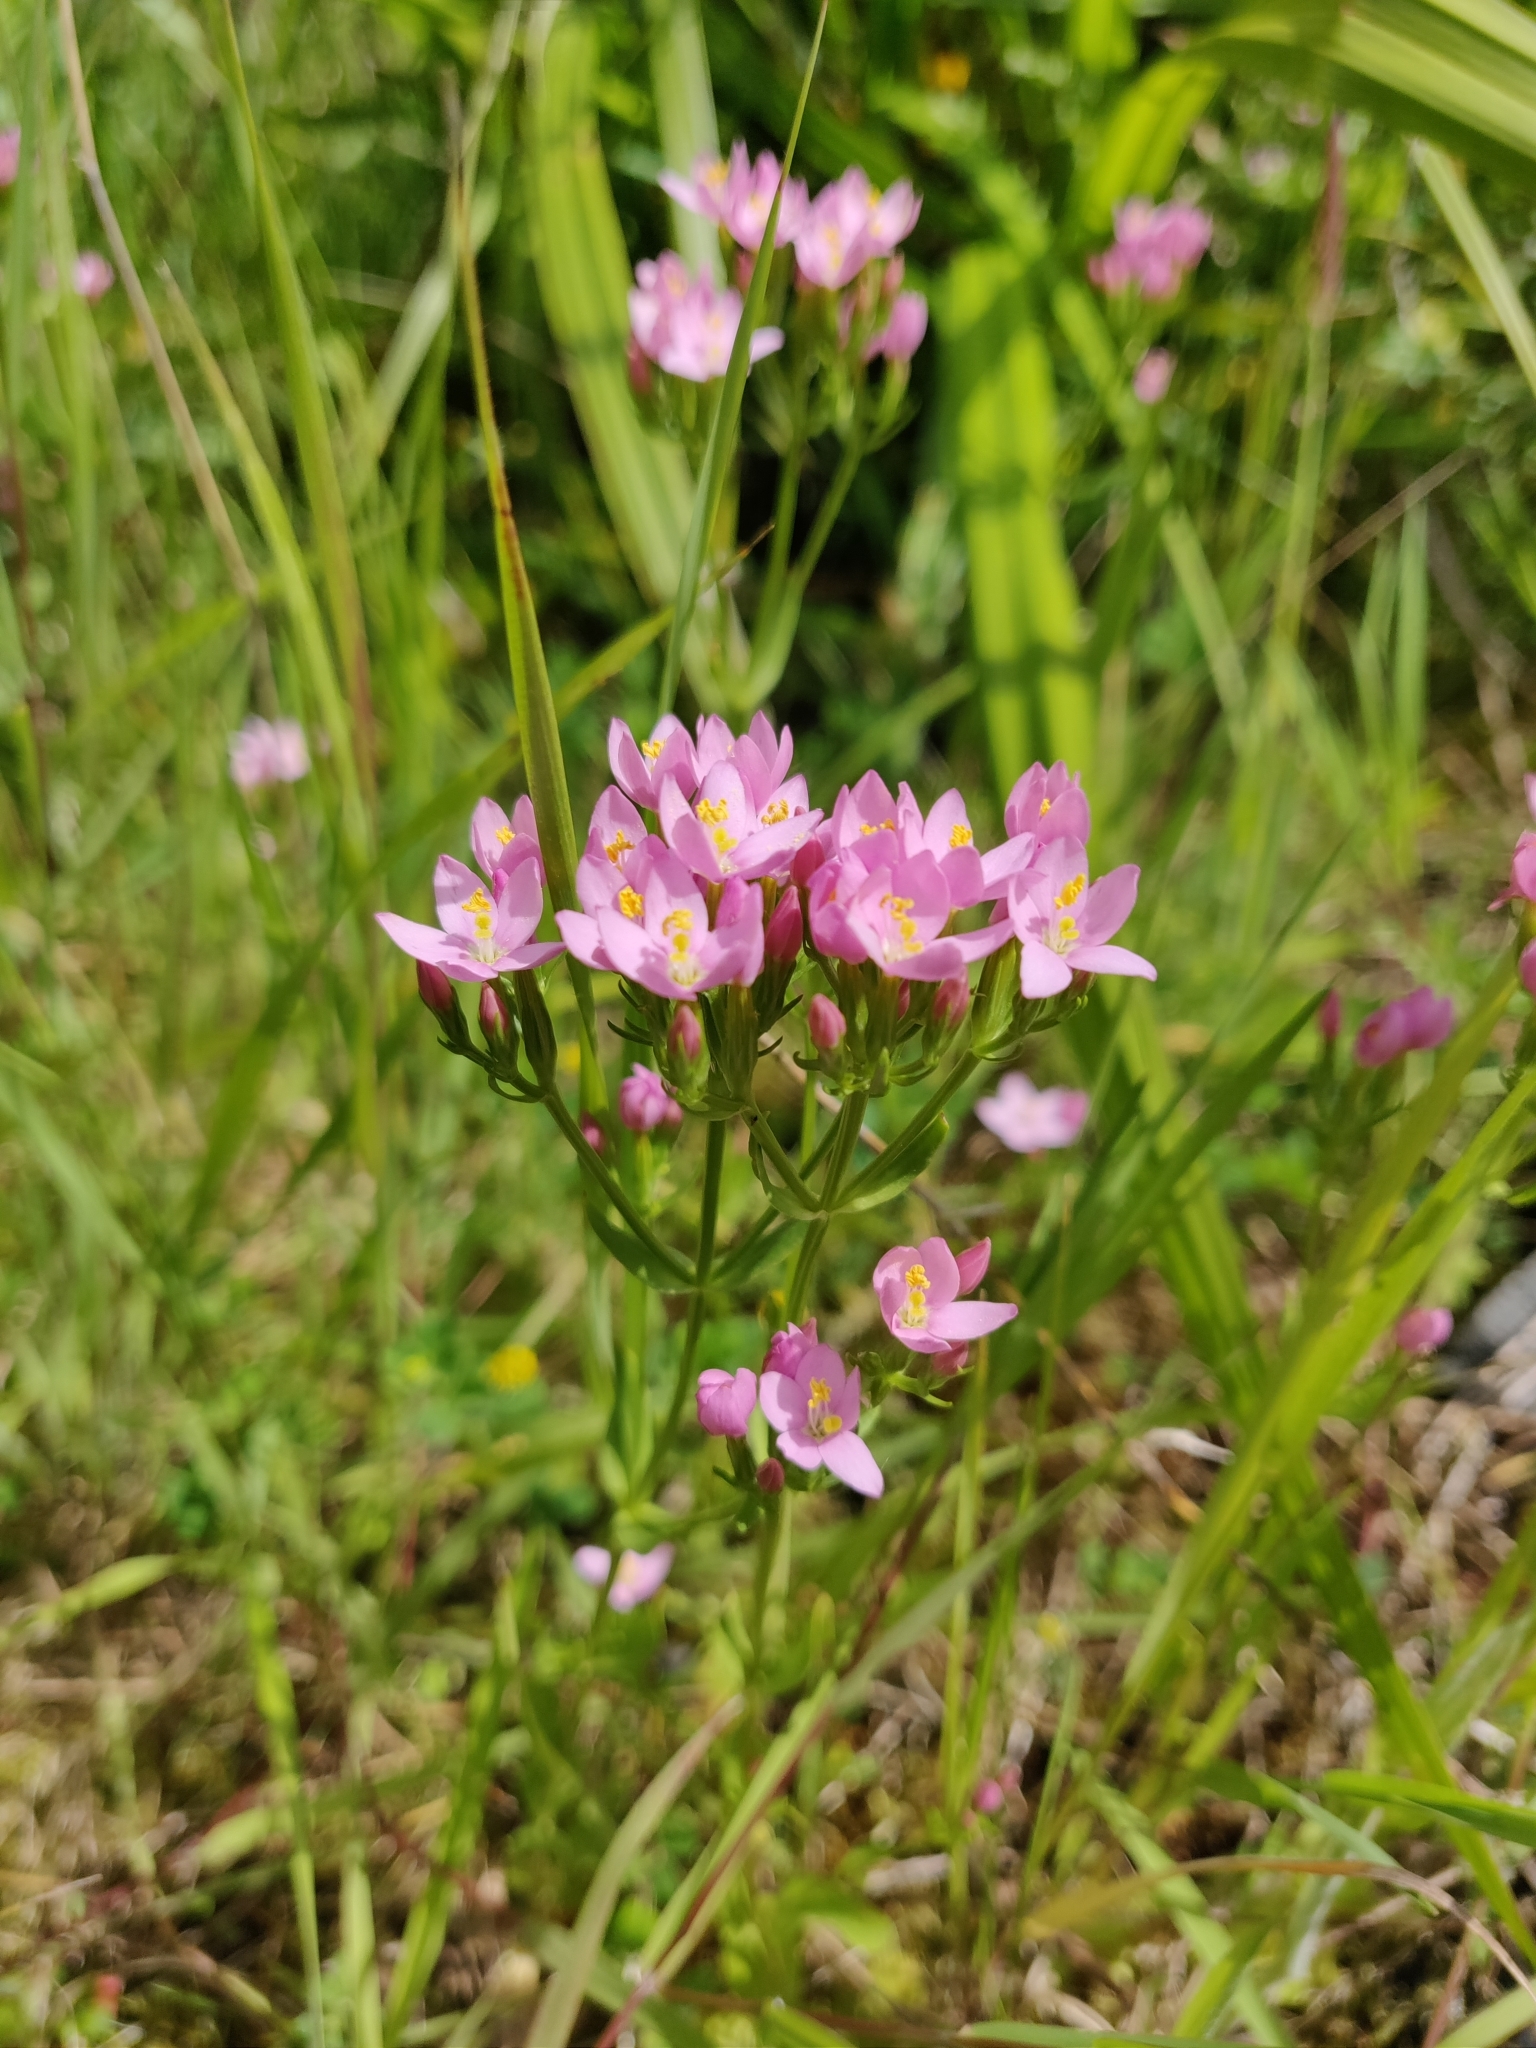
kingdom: Plantae
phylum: Tracheophyta
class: Magnoliopsida
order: Gentianales
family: Gentianaceae
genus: Centaurium
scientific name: Centaurium erythraea
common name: Common centaury
